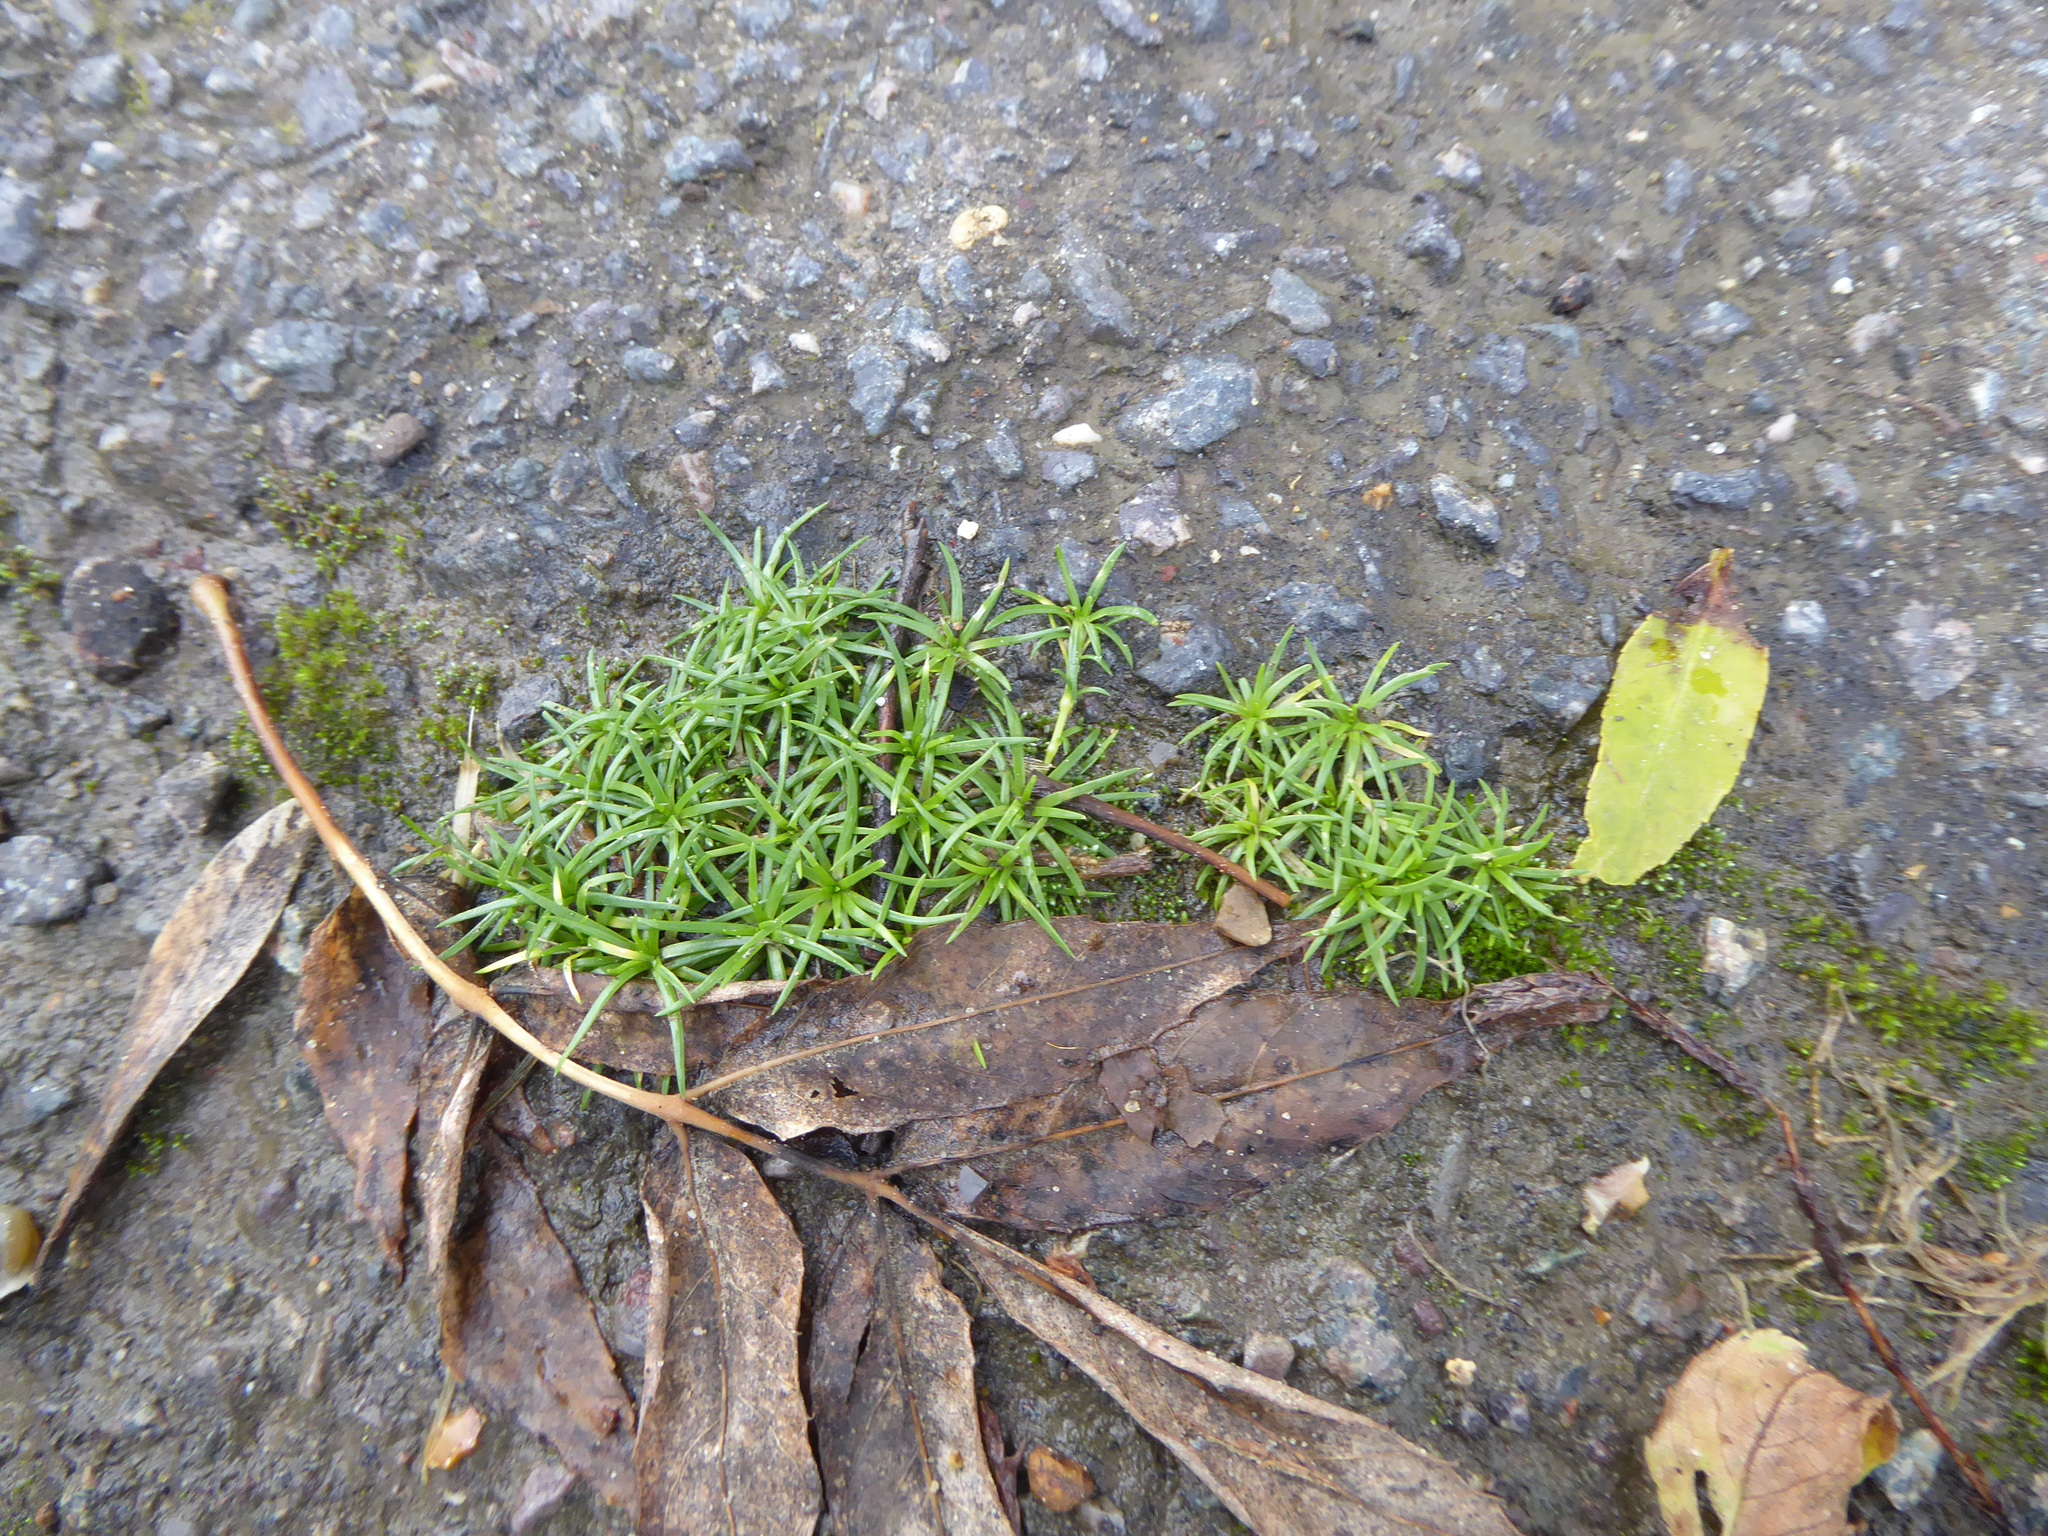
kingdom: Plantae
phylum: Tracheophyta
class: Magnoliopsida
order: Caryophyllales
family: Caryophyllaceae
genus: Sagina
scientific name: Sagina procumbens
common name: Procumbent pearlwort
